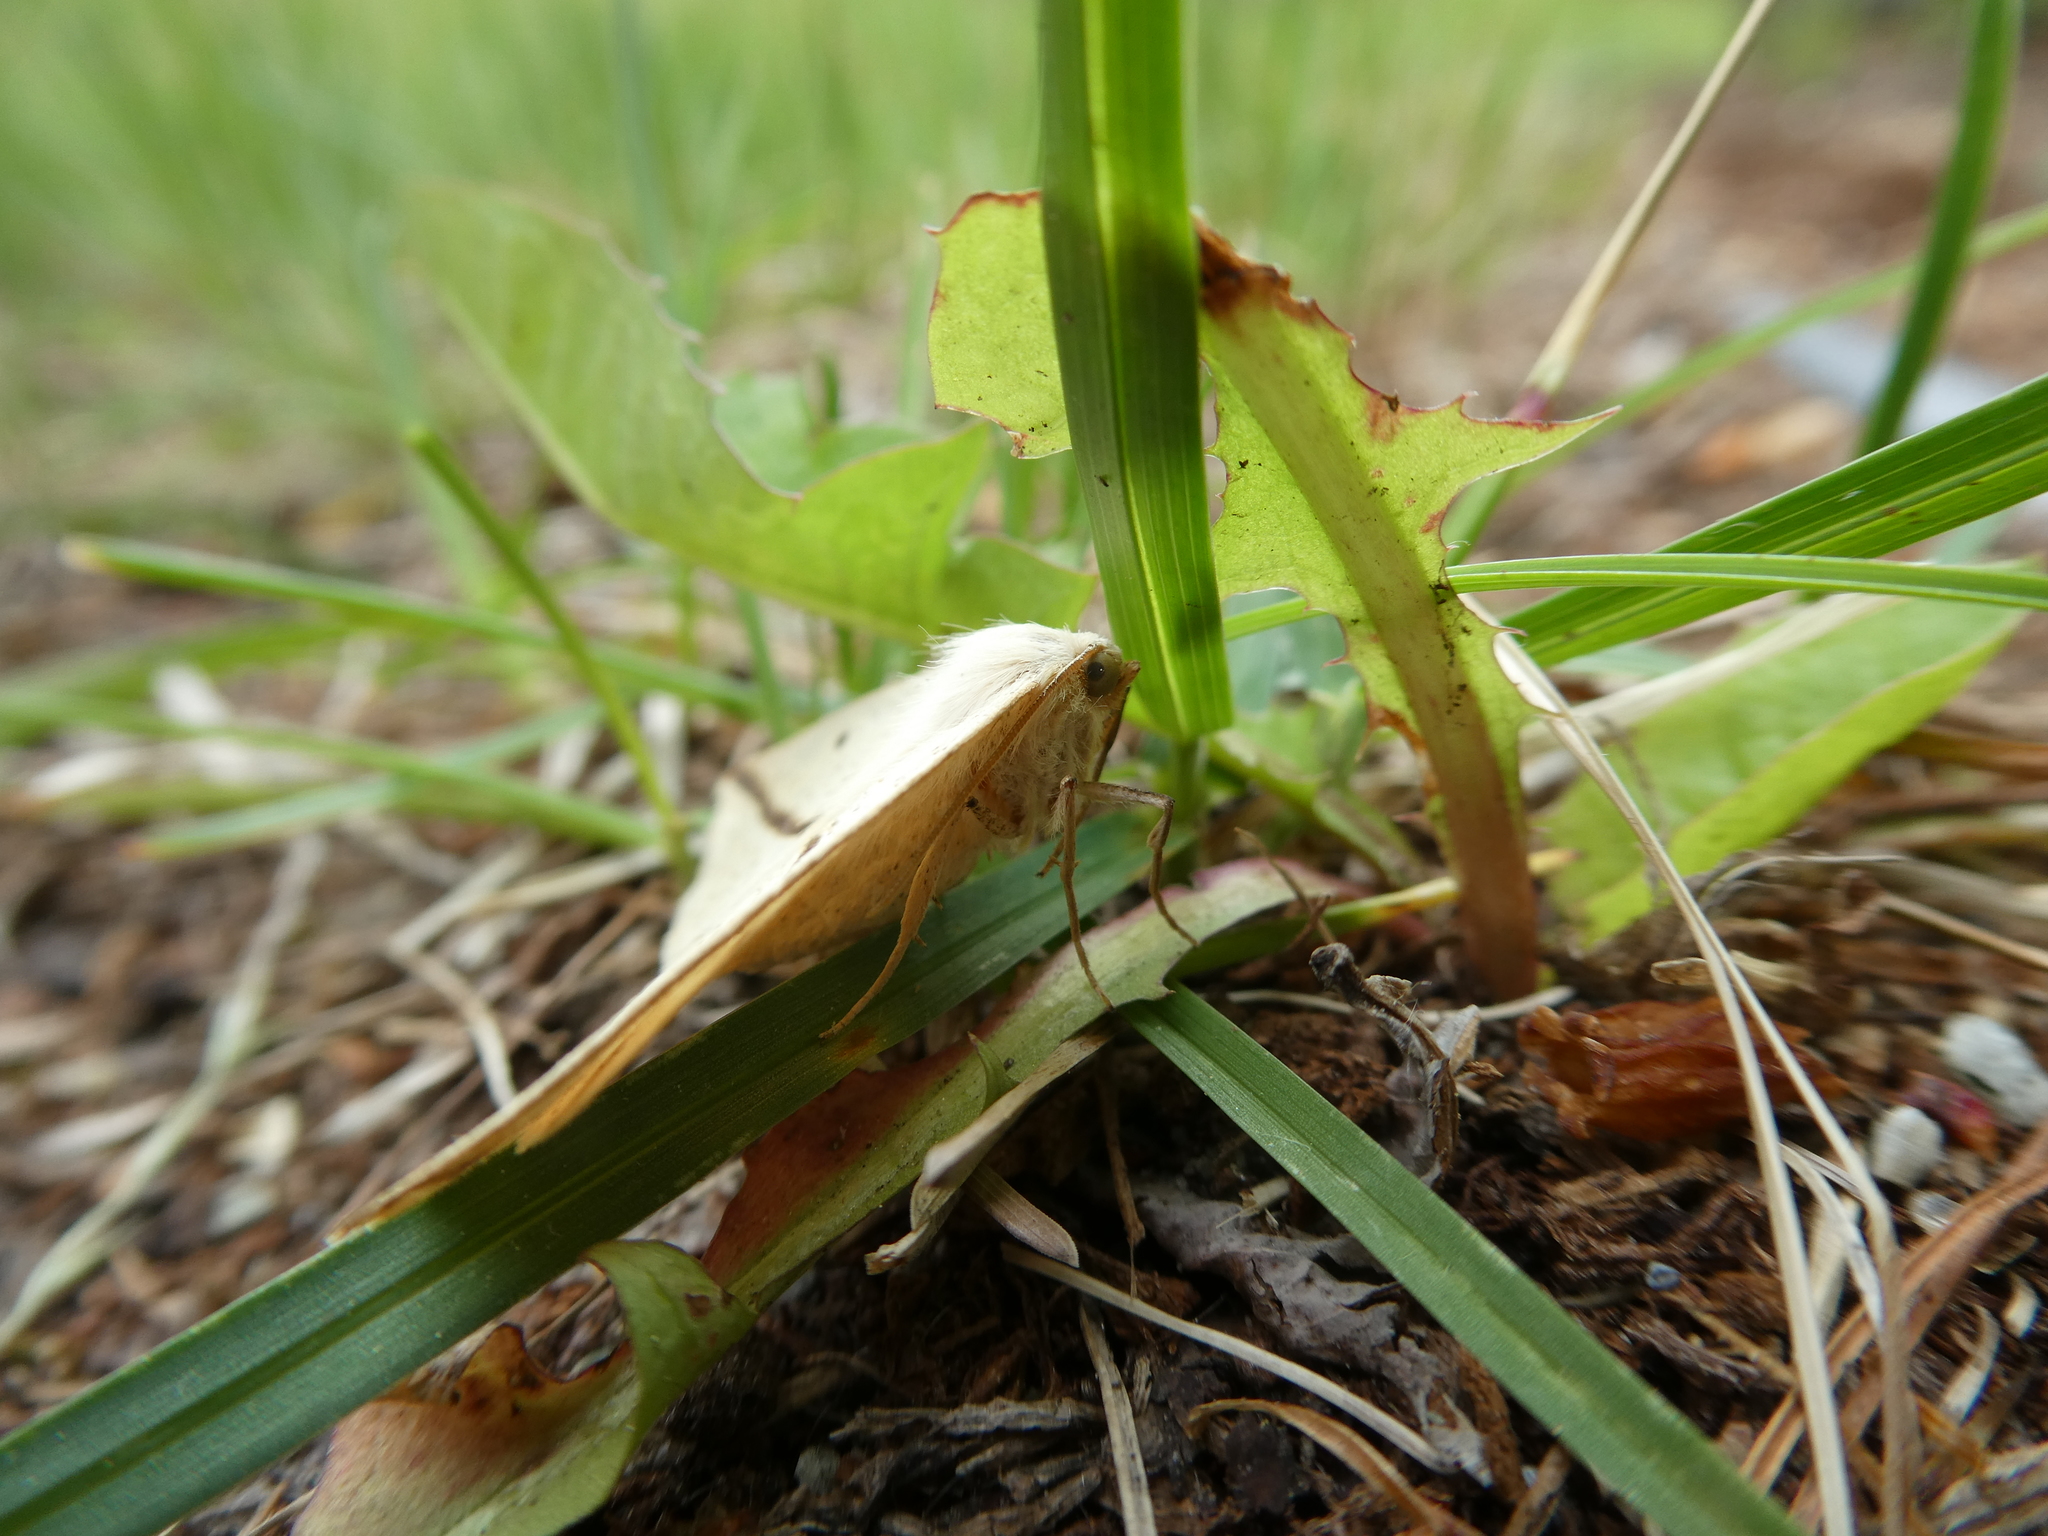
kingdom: Animalia
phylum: Arthropoda
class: Insecta
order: Lepidoptera
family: Geometridae
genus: Tetracis
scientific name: Tetracis crocallata
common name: Yellow slant-line
